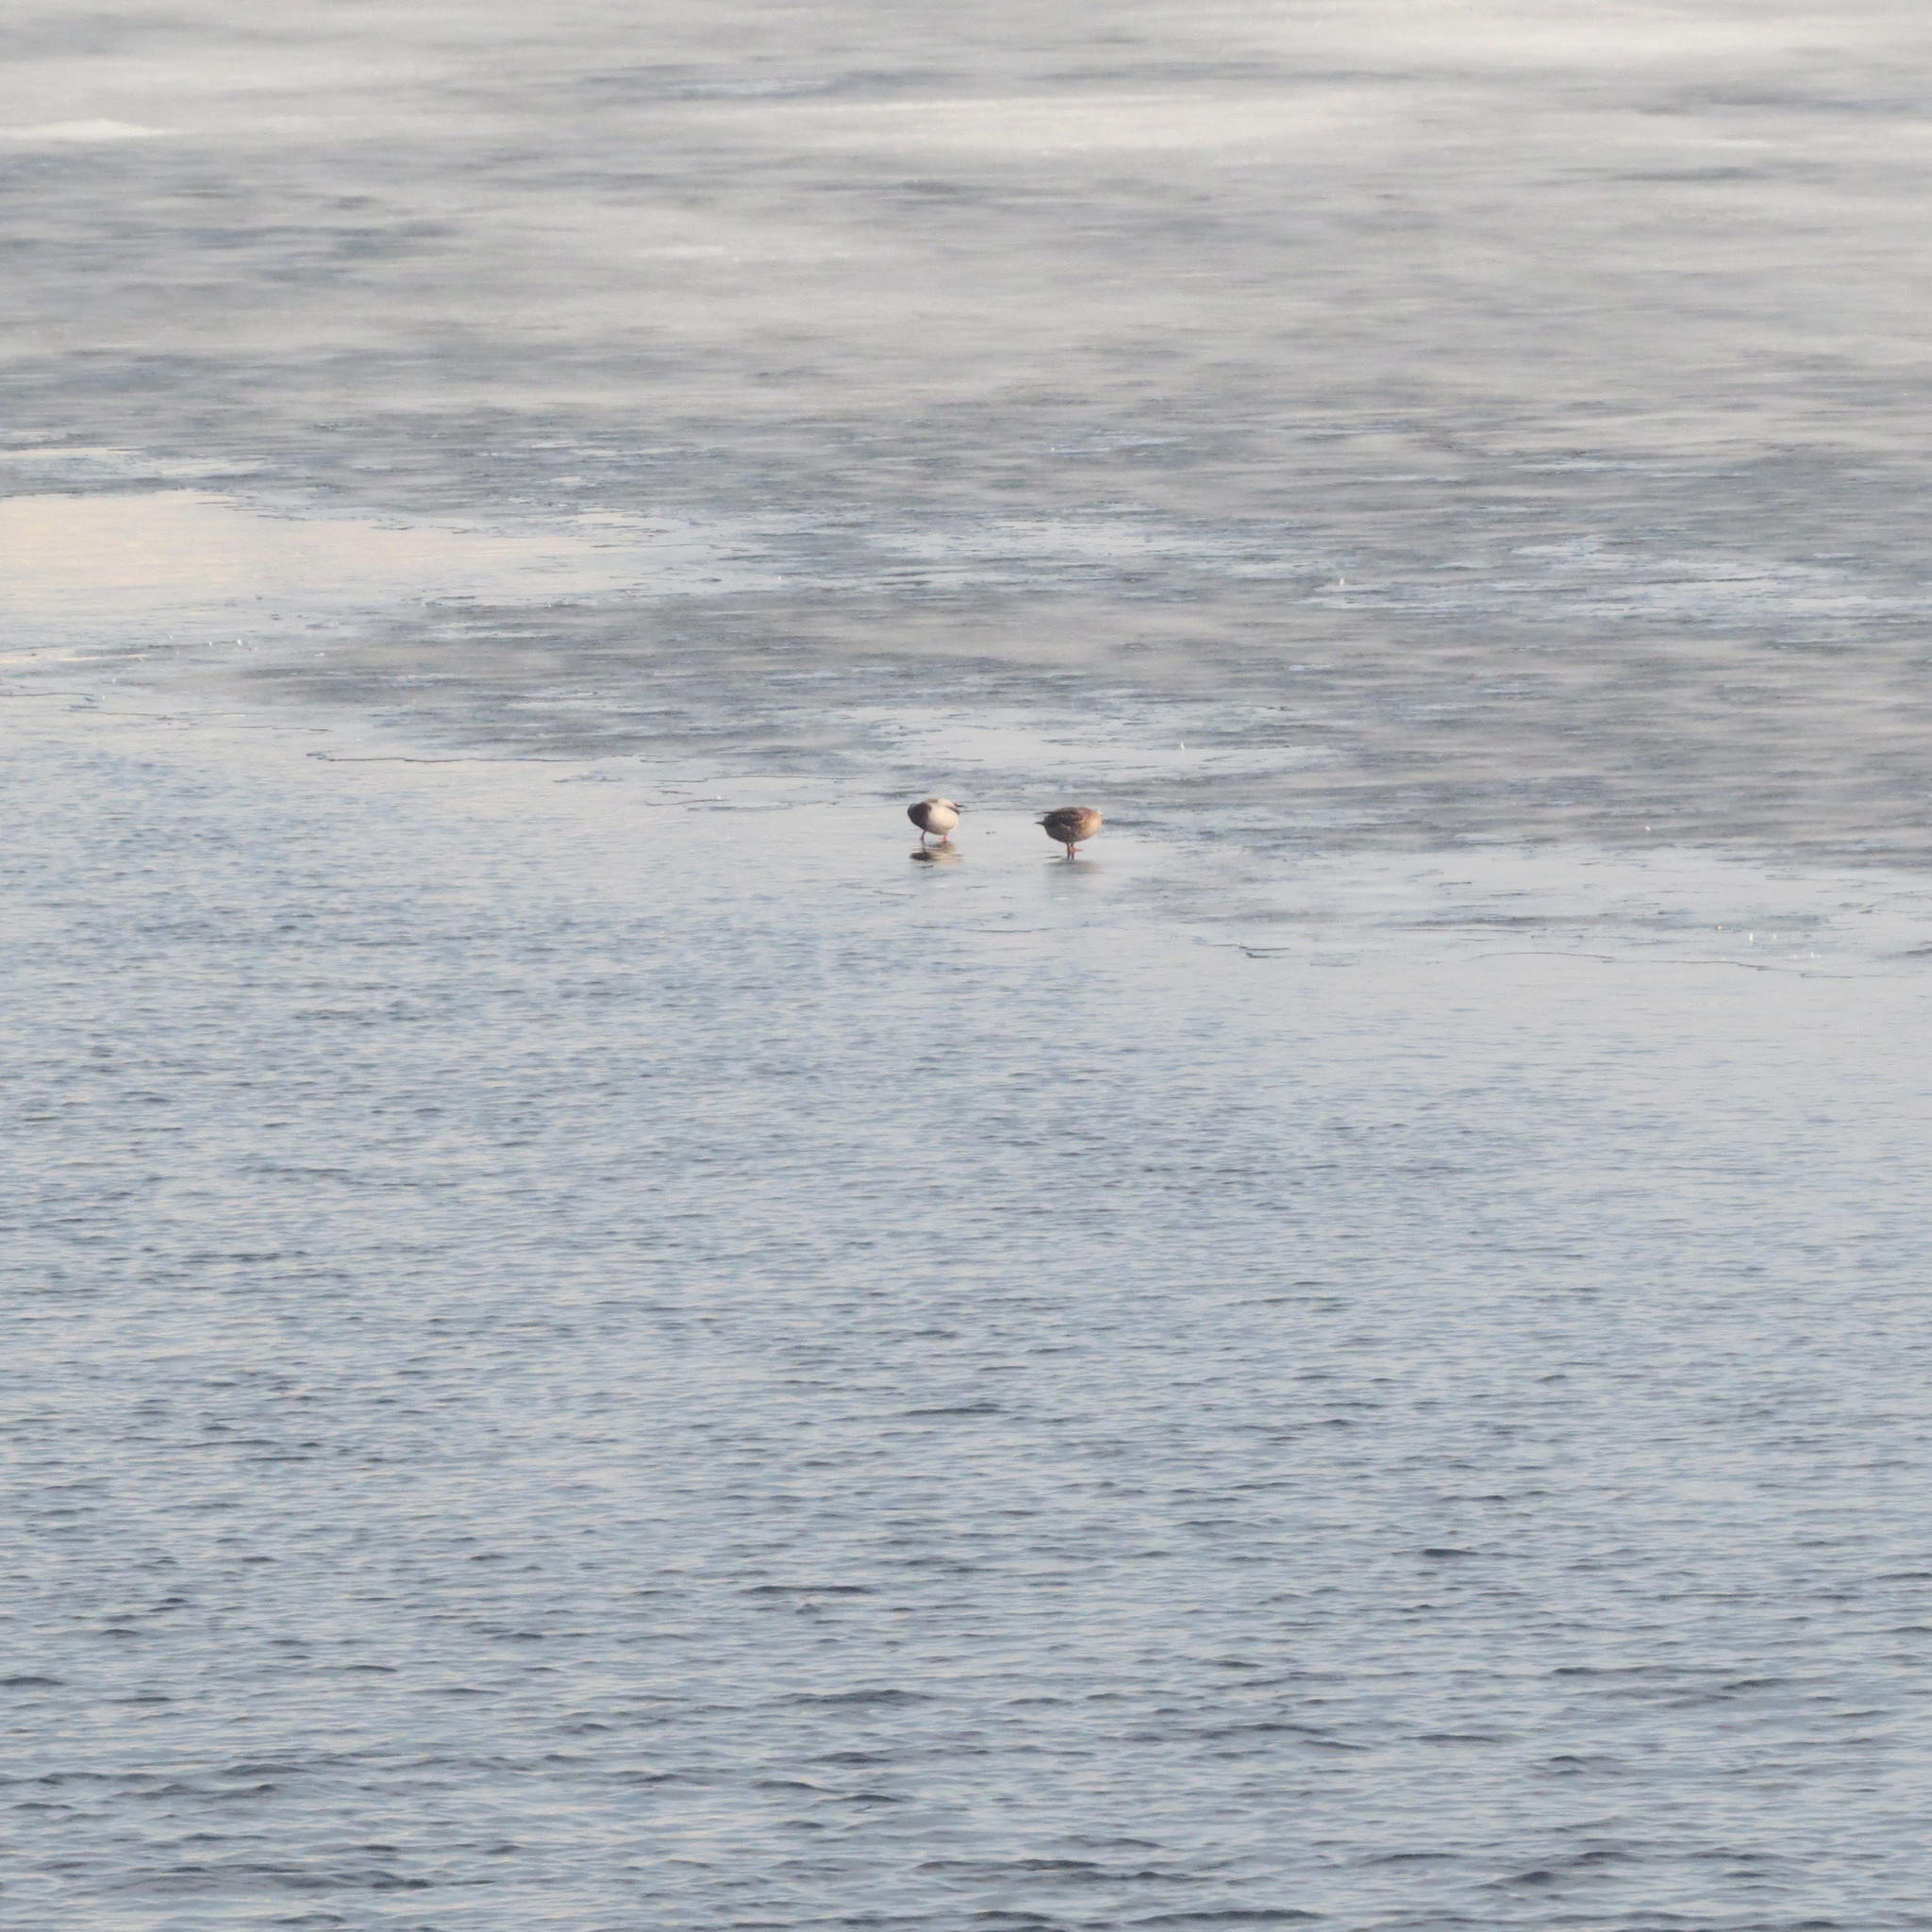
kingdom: Animalia
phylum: Chordata
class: Aves
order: Anseriformes
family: Anatidae
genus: Anas
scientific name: Anas platyrhynchos
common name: Mallard
